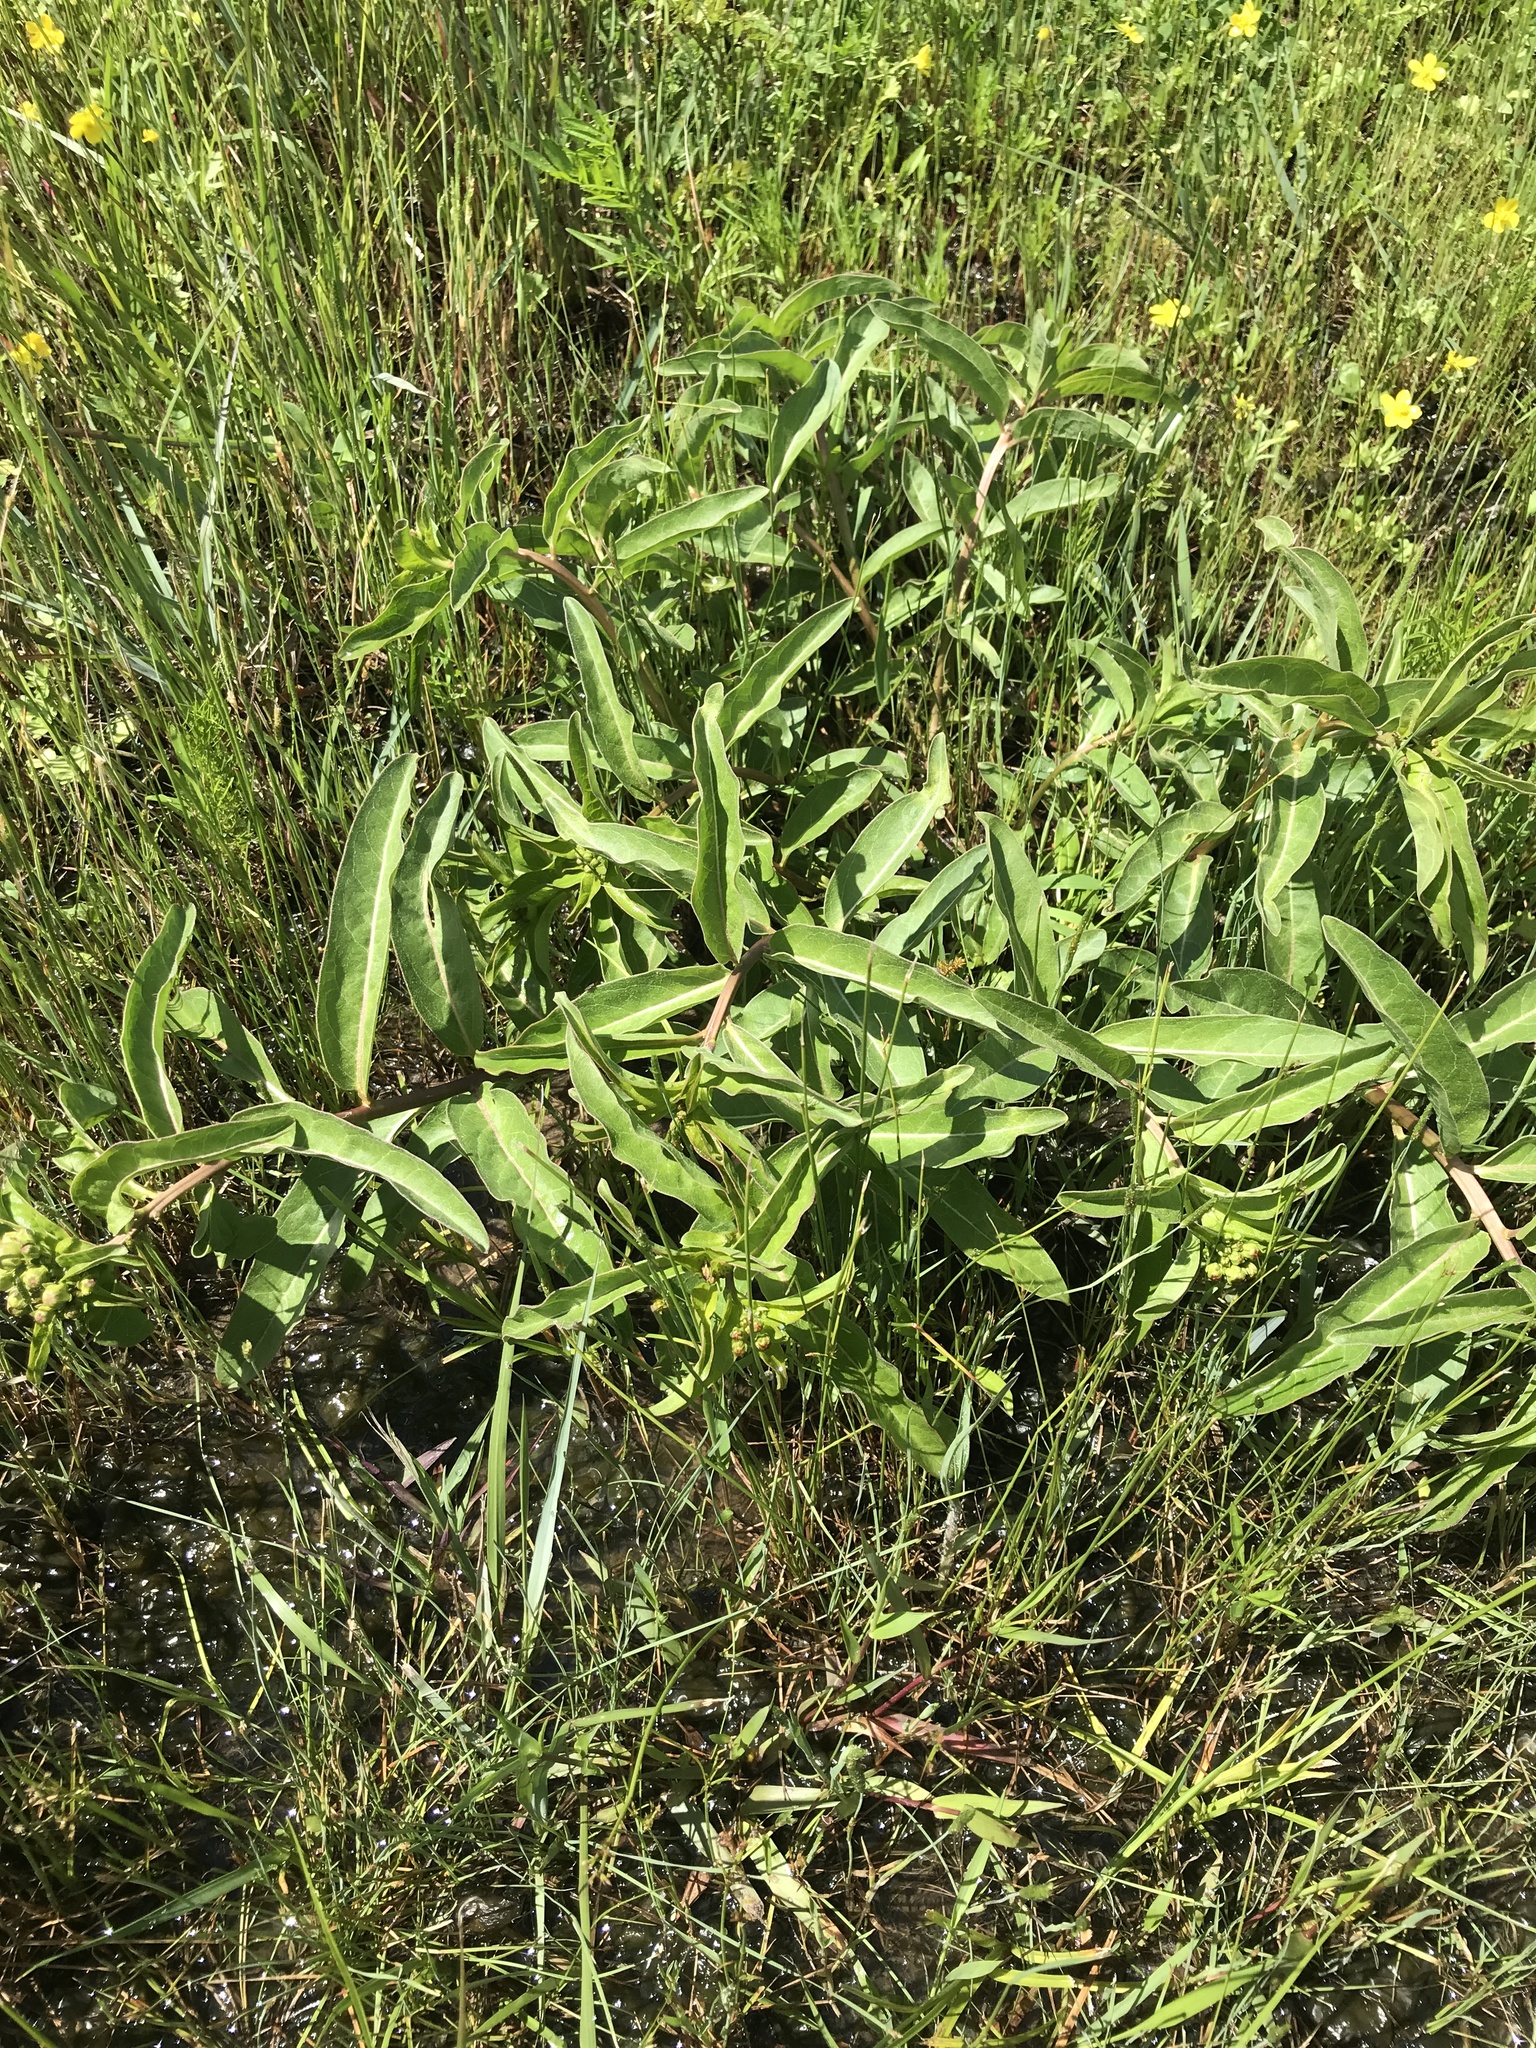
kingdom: Plantae
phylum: Tracheophyta
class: Magnoliopsida
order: Gentianales
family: Apocynaceae
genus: Asclepias
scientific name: Asclepias viridis
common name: Antelope-horns
